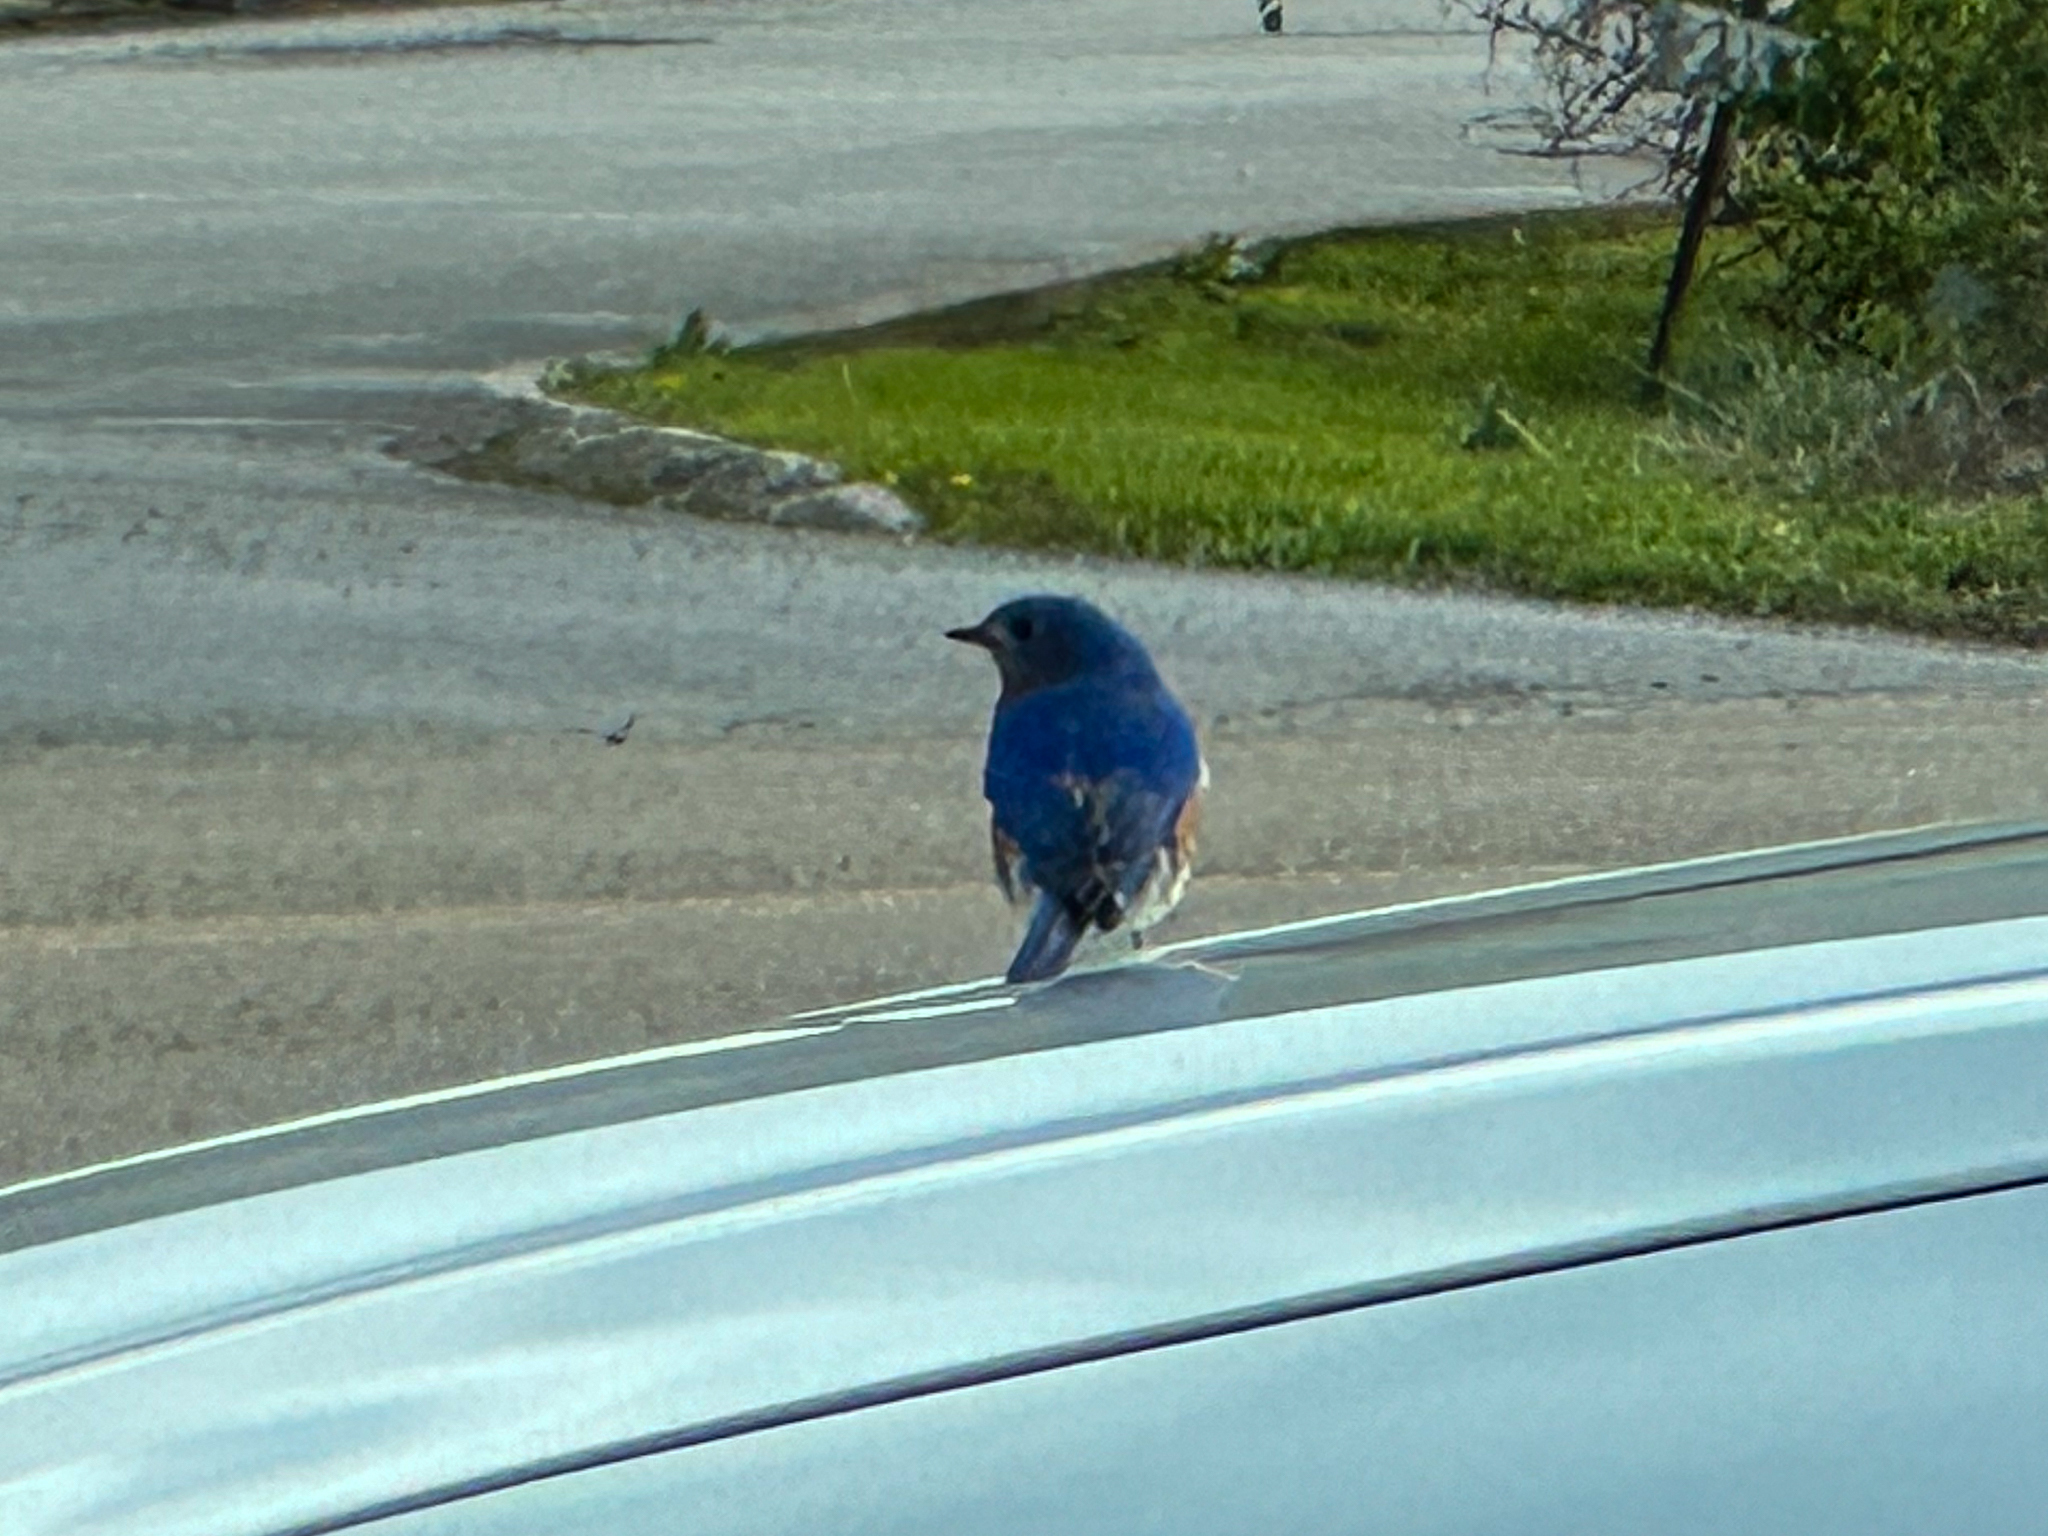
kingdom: Animalia
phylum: Chordata
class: Aves
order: Passeriformes
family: Turdidae
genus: Sialia
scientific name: Sialia sialis
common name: Eastern bluebird
